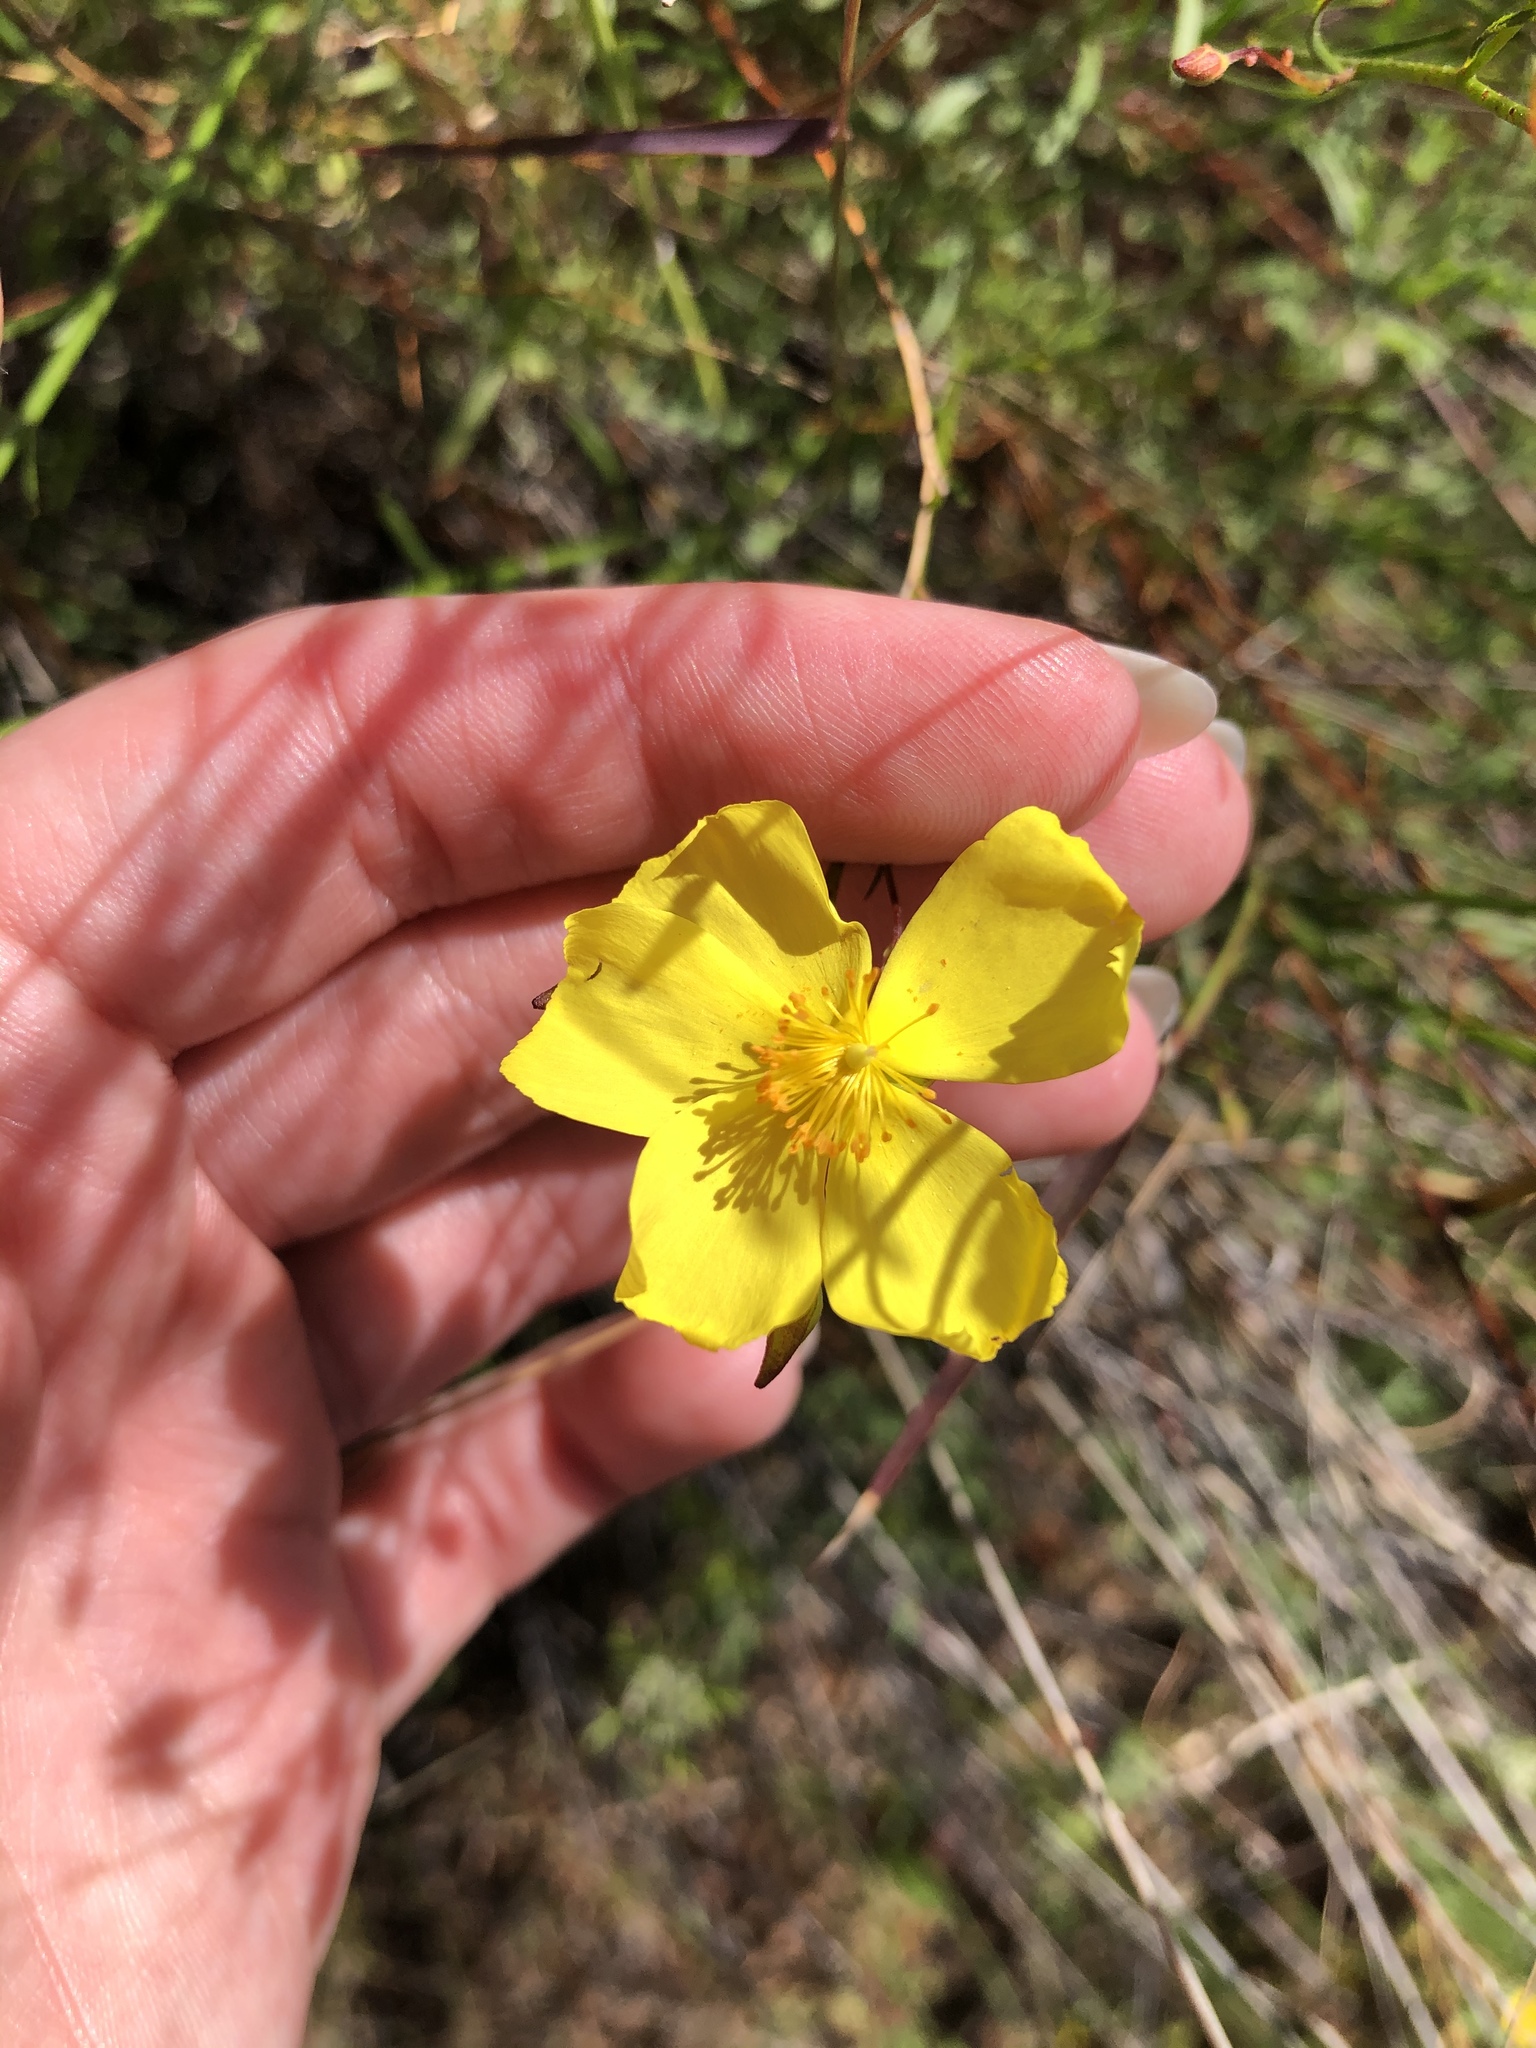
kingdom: Plantae
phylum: Tracheophyta
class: Magnoliopsida
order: Malvales
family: Cistaceae
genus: Crocanthemum
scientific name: Crocanthemum aldersonii
